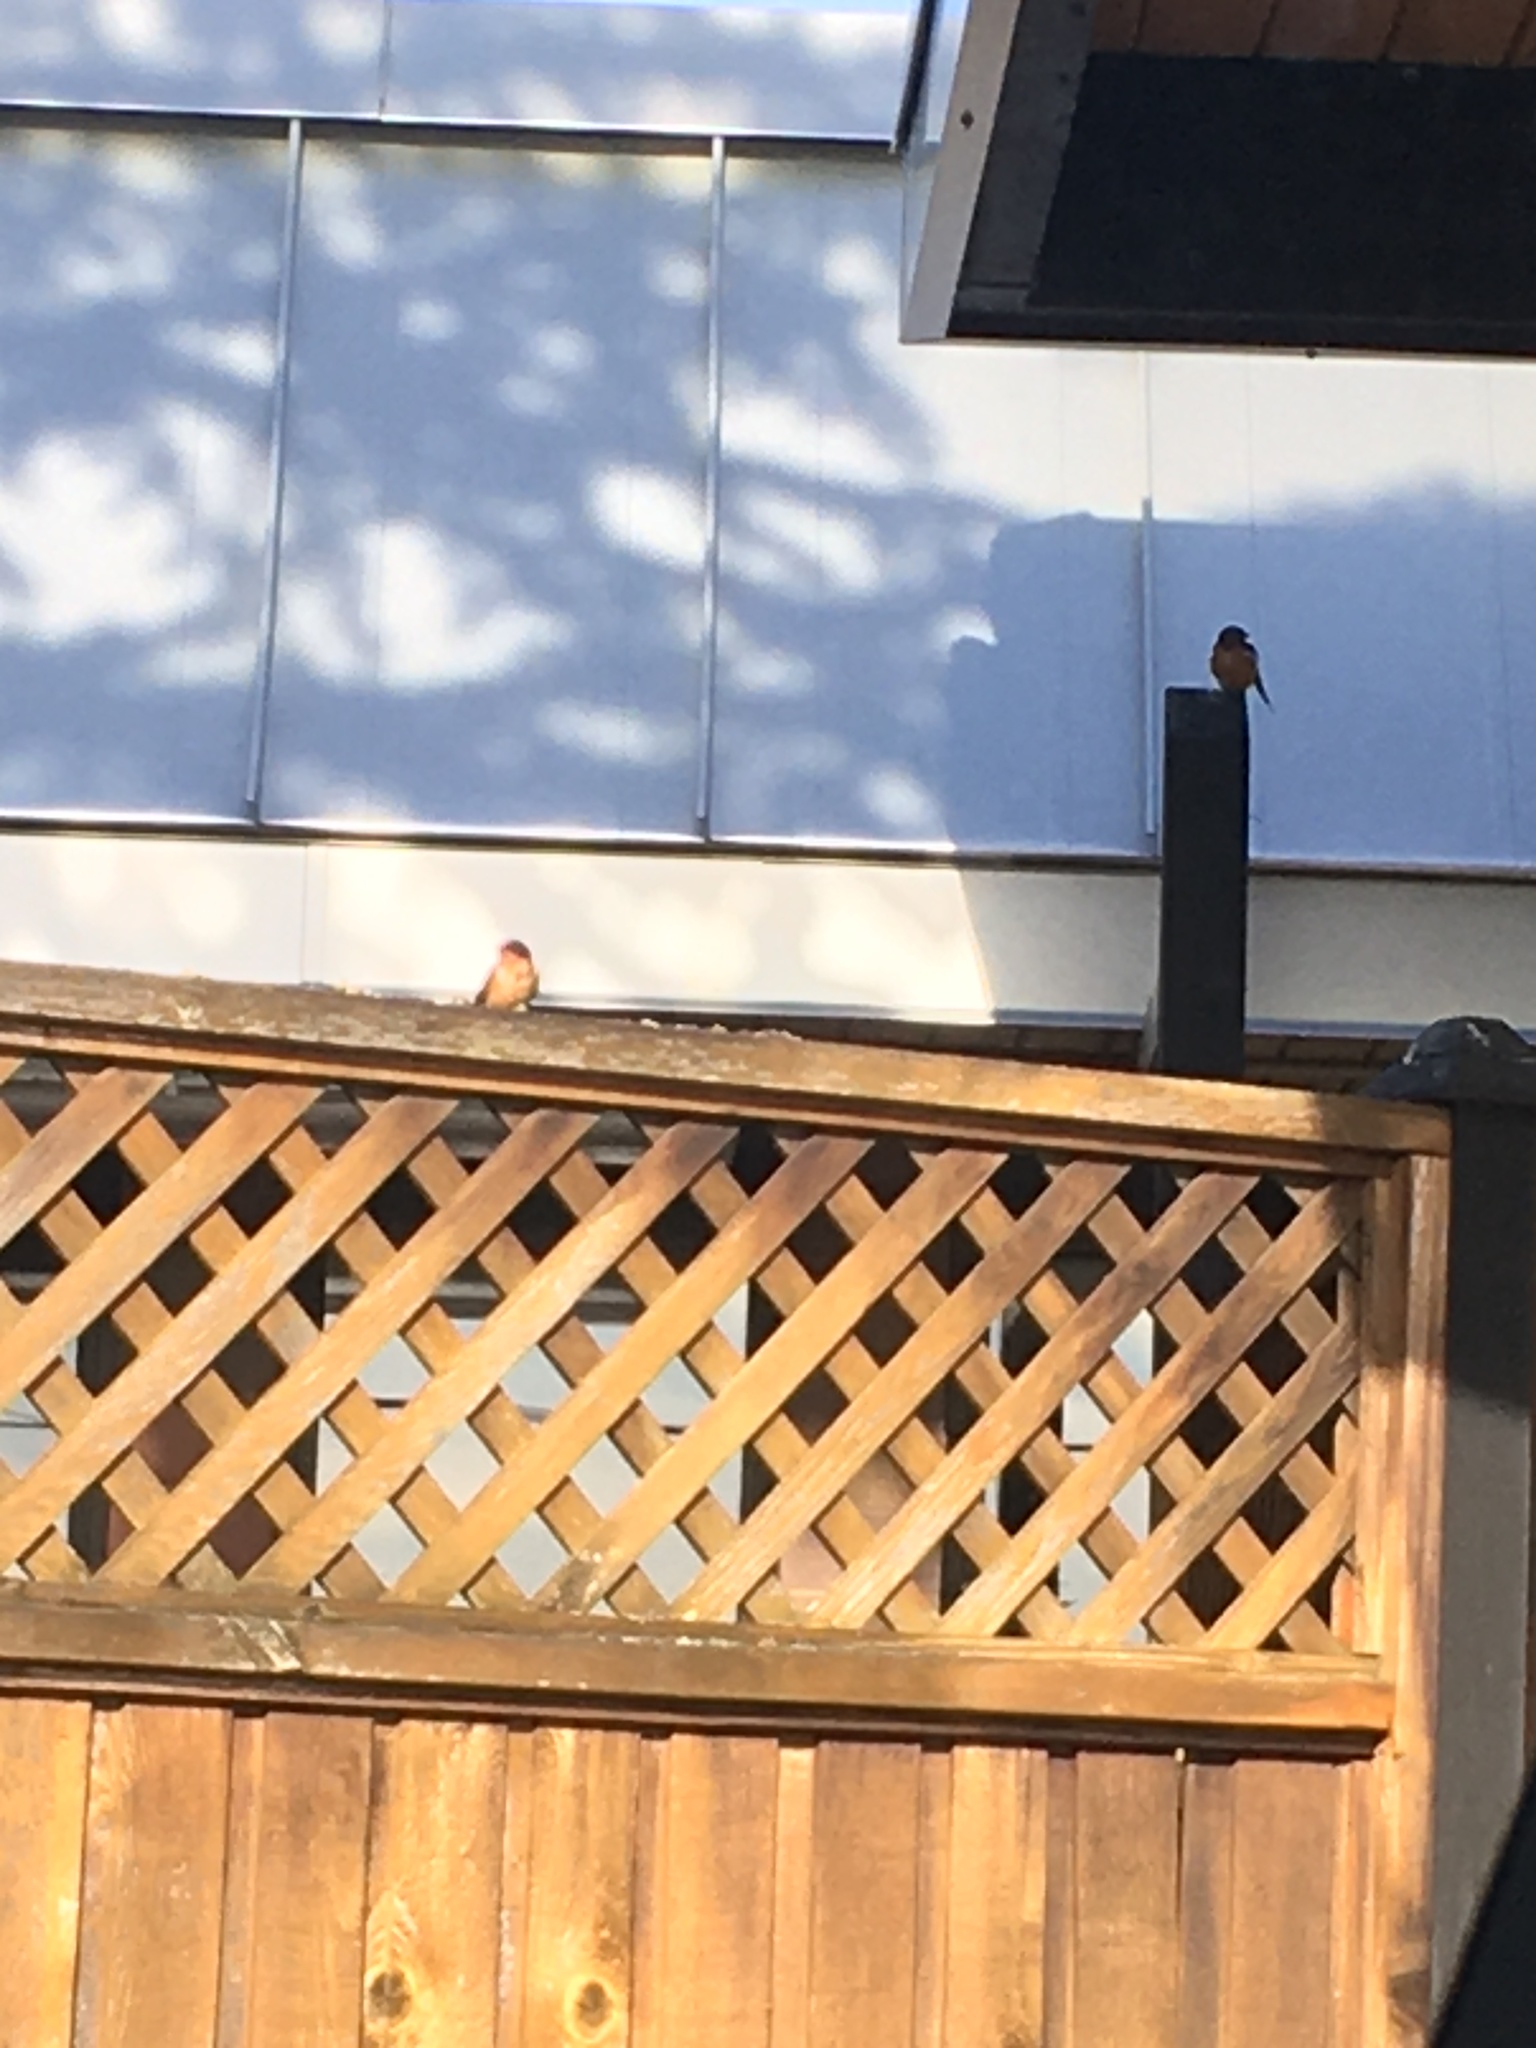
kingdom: Animalia
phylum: Chordata
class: Aves
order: Passeriformes
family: Hirundinidae
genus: Hirundo
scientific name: Hirundo rustica
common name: Barn swallow
